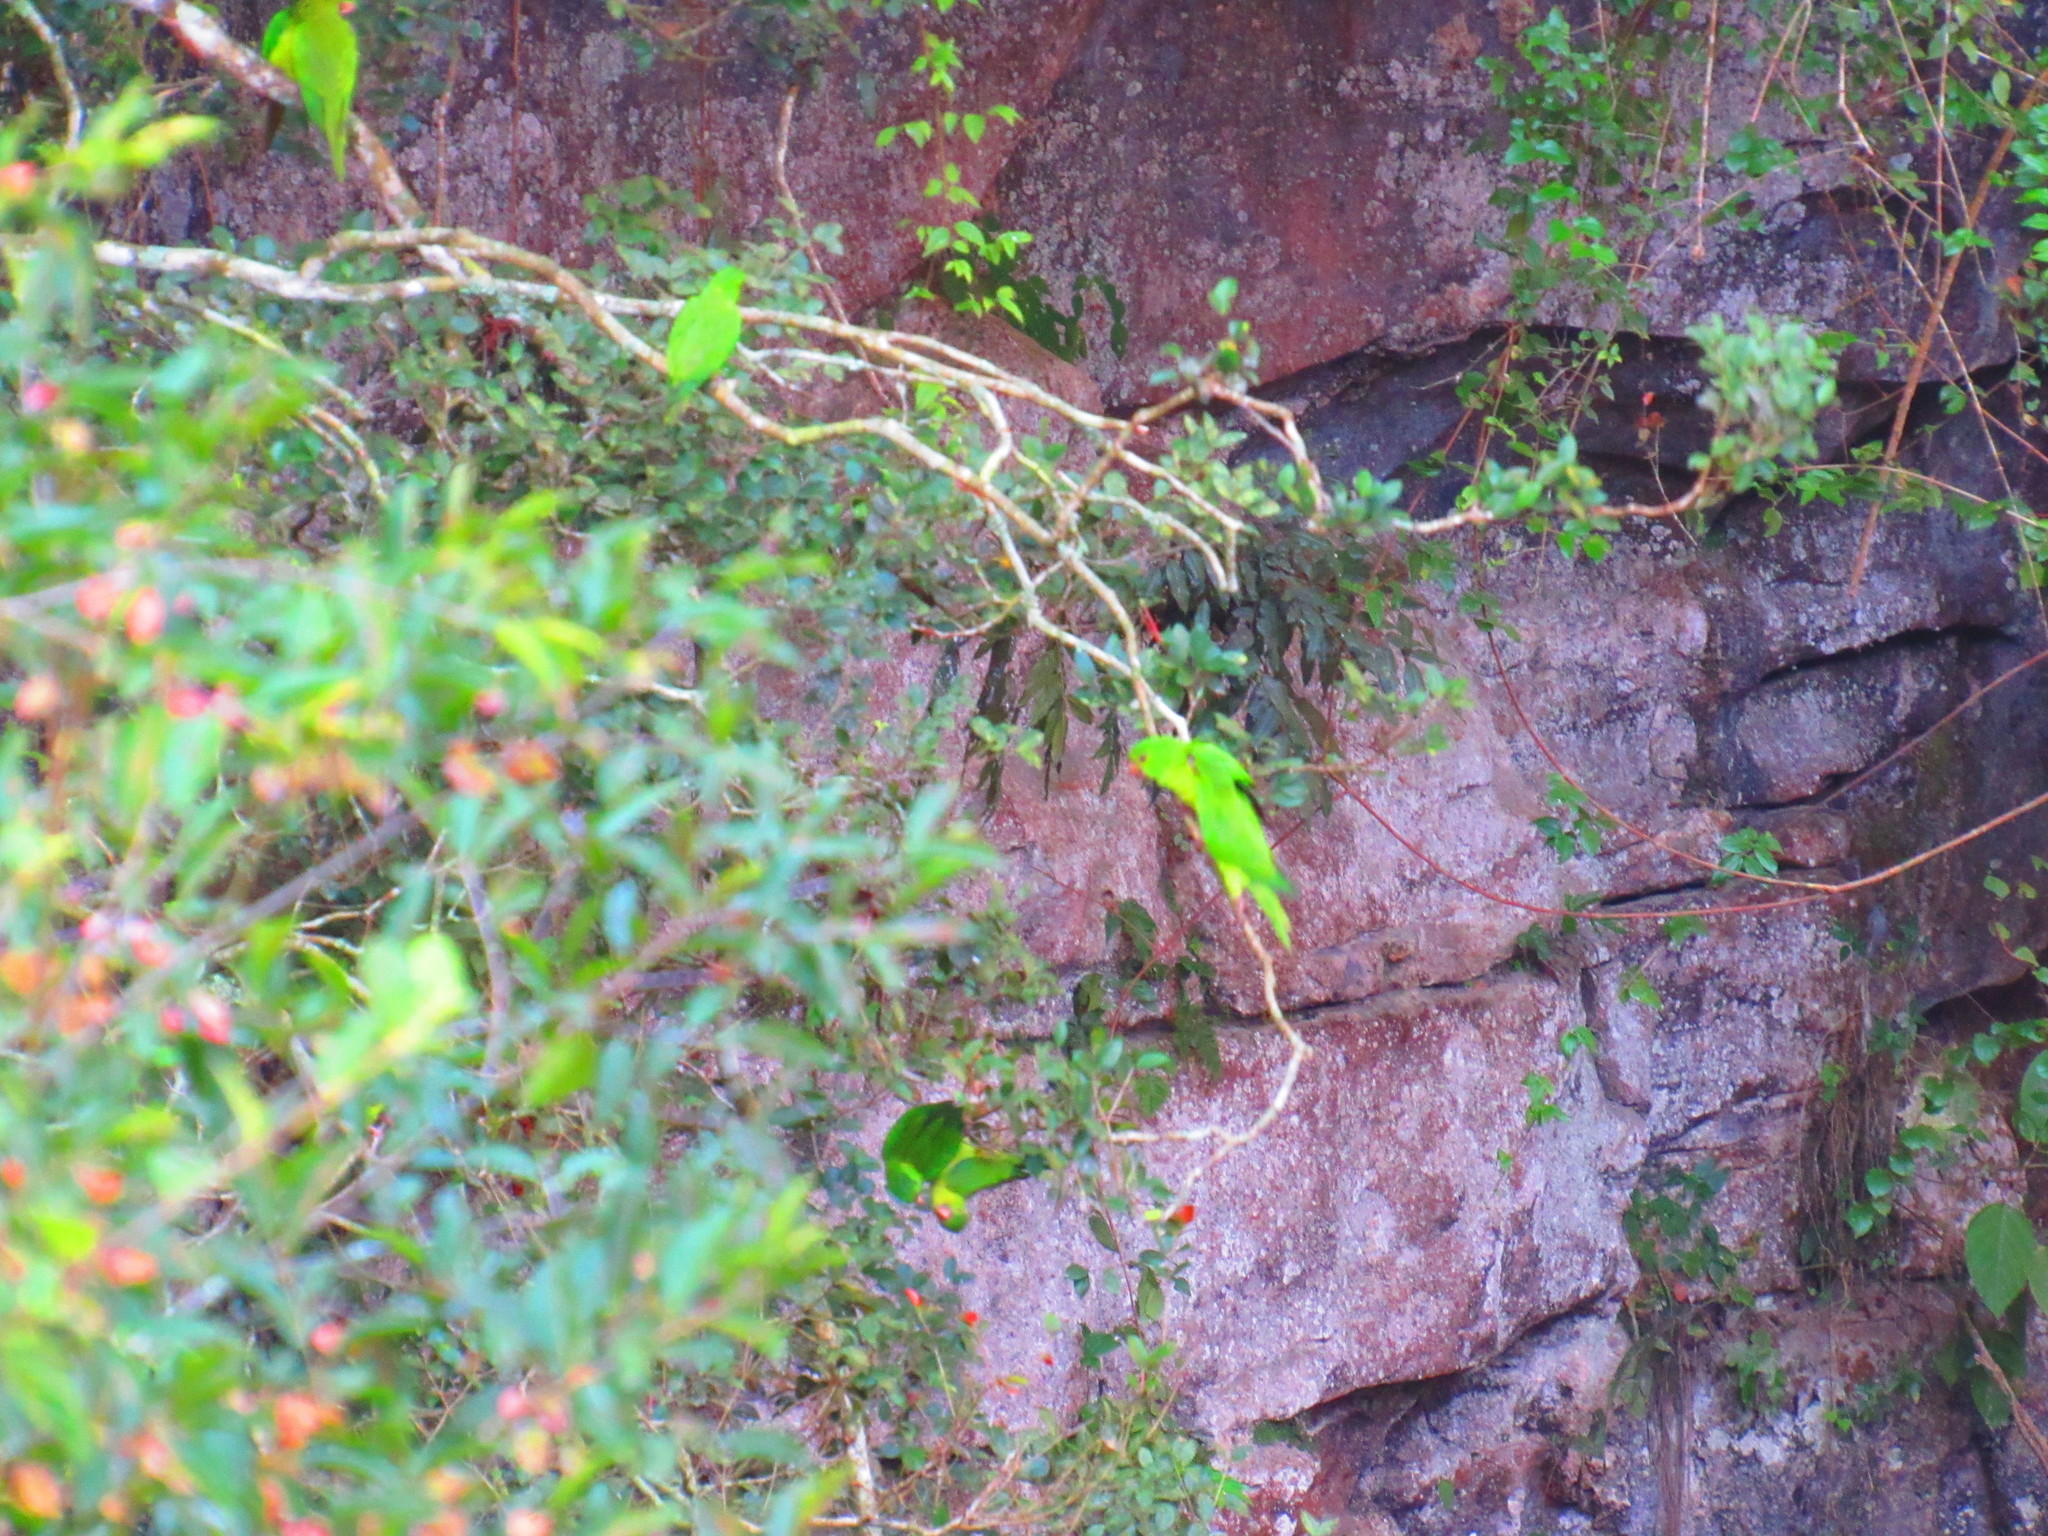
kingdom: Animalia
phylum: Chordata
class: Aves
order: Psittaciformes
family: Psittacidae
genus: Aratinga
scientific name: Aratinga holochlora
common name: Green parakeet
